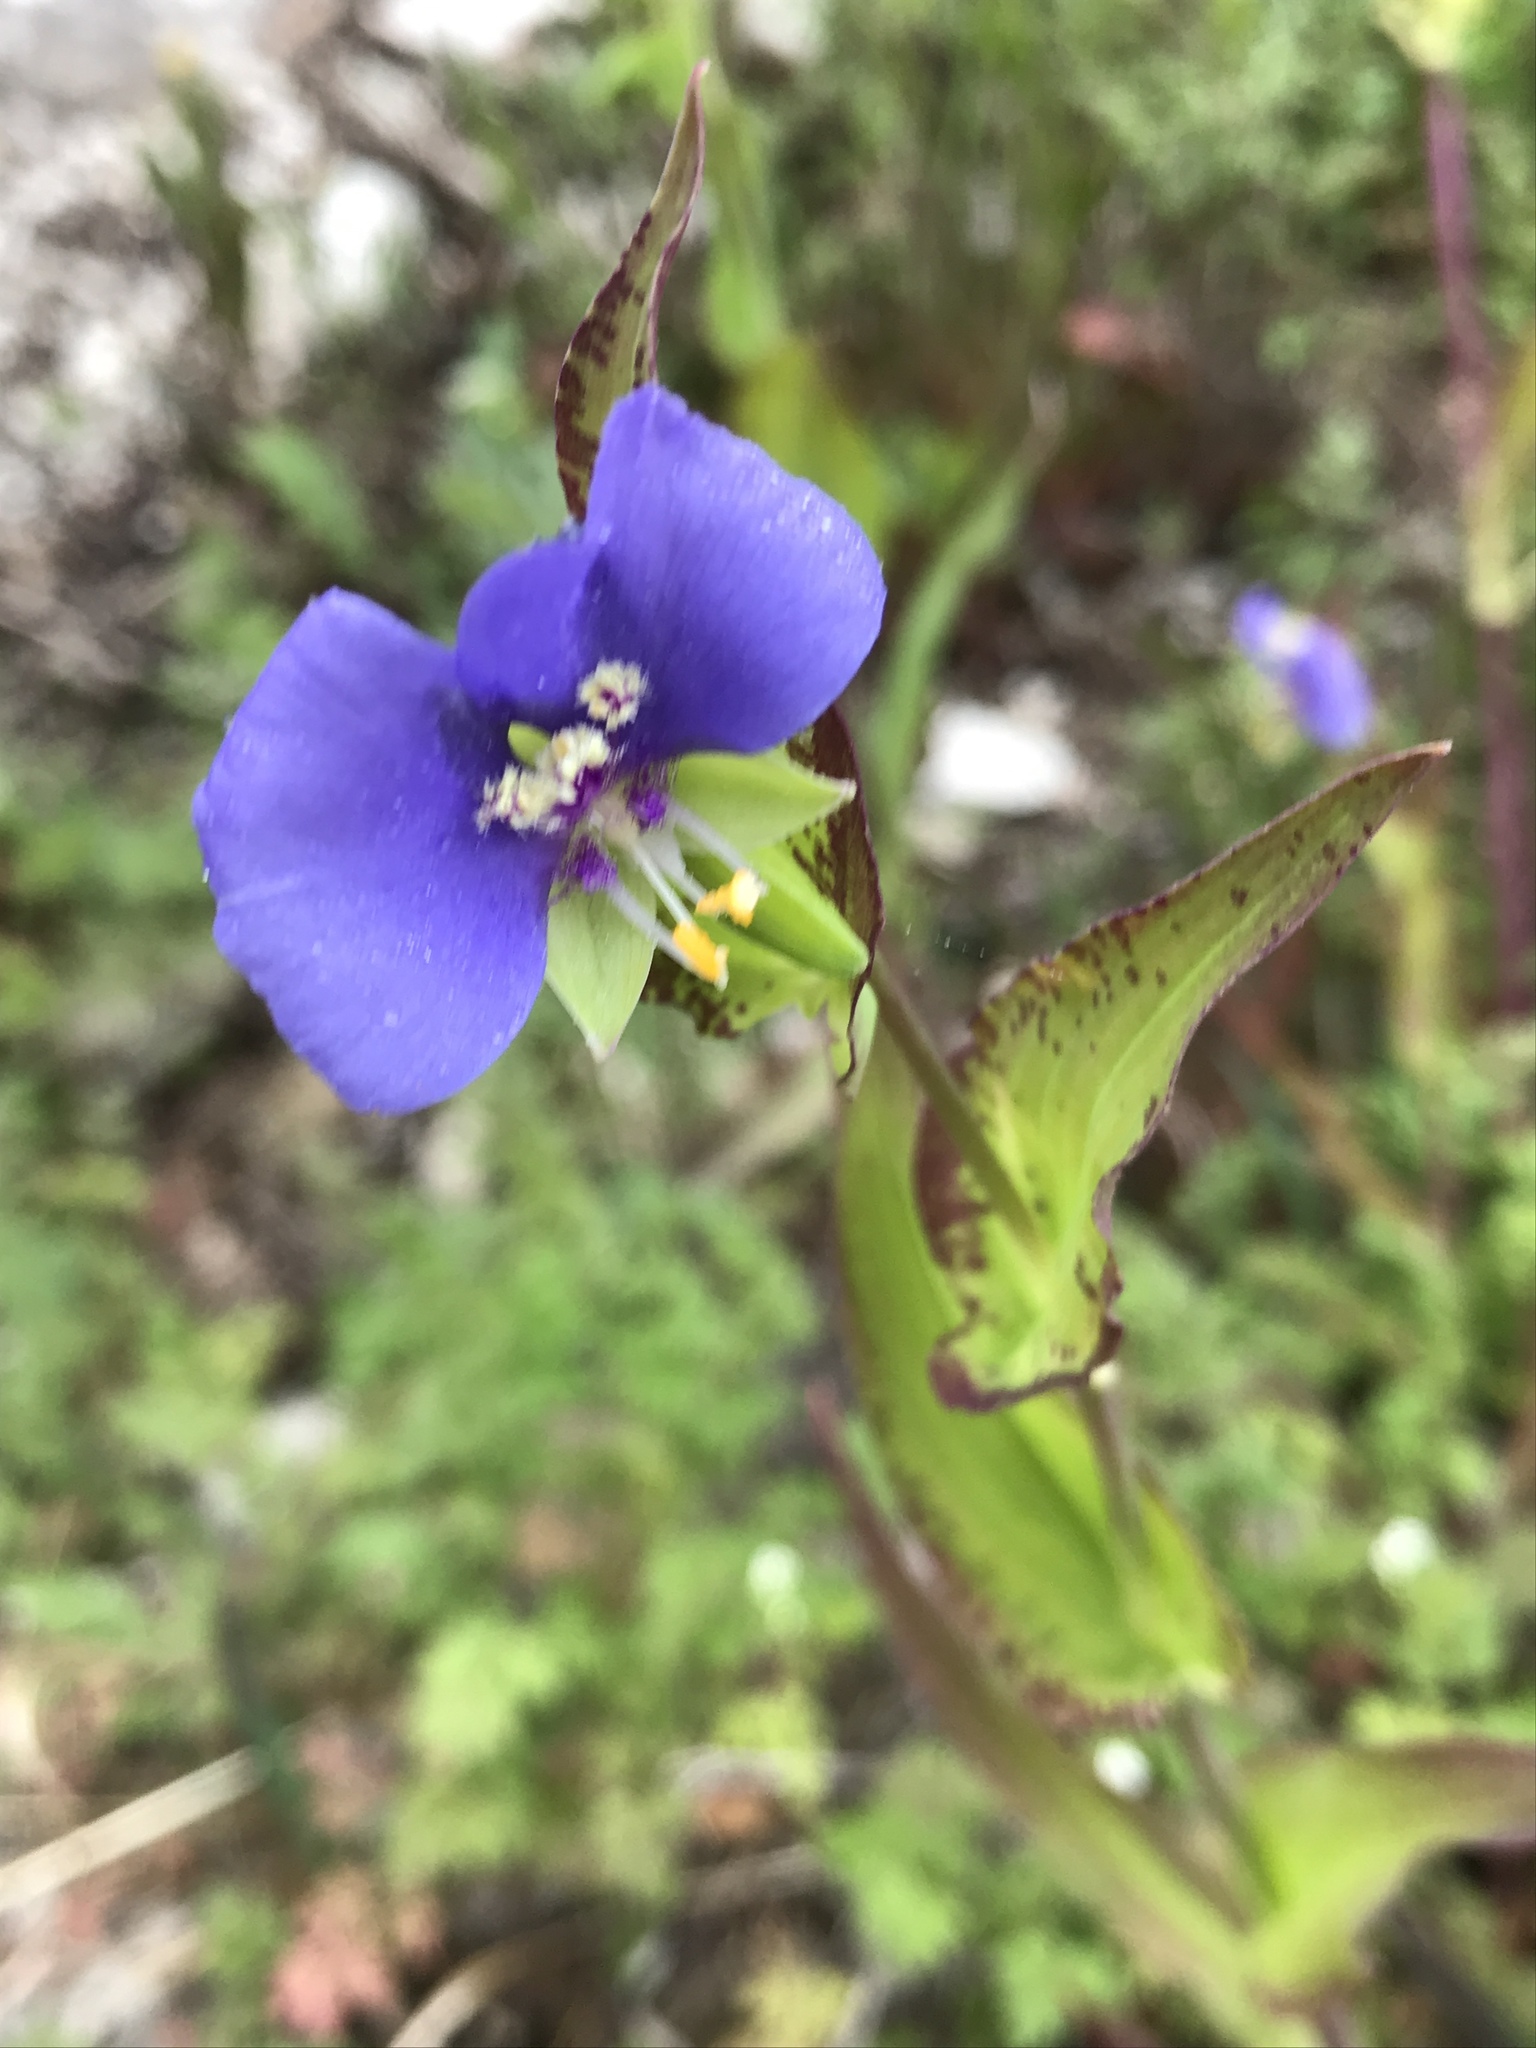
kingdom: Plantae
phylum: Tracheophyta
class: Liliopsida
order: Commelinales
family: Commelinaceae
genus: Tinantia
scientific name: Tinantia anomala
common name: False dayflower
